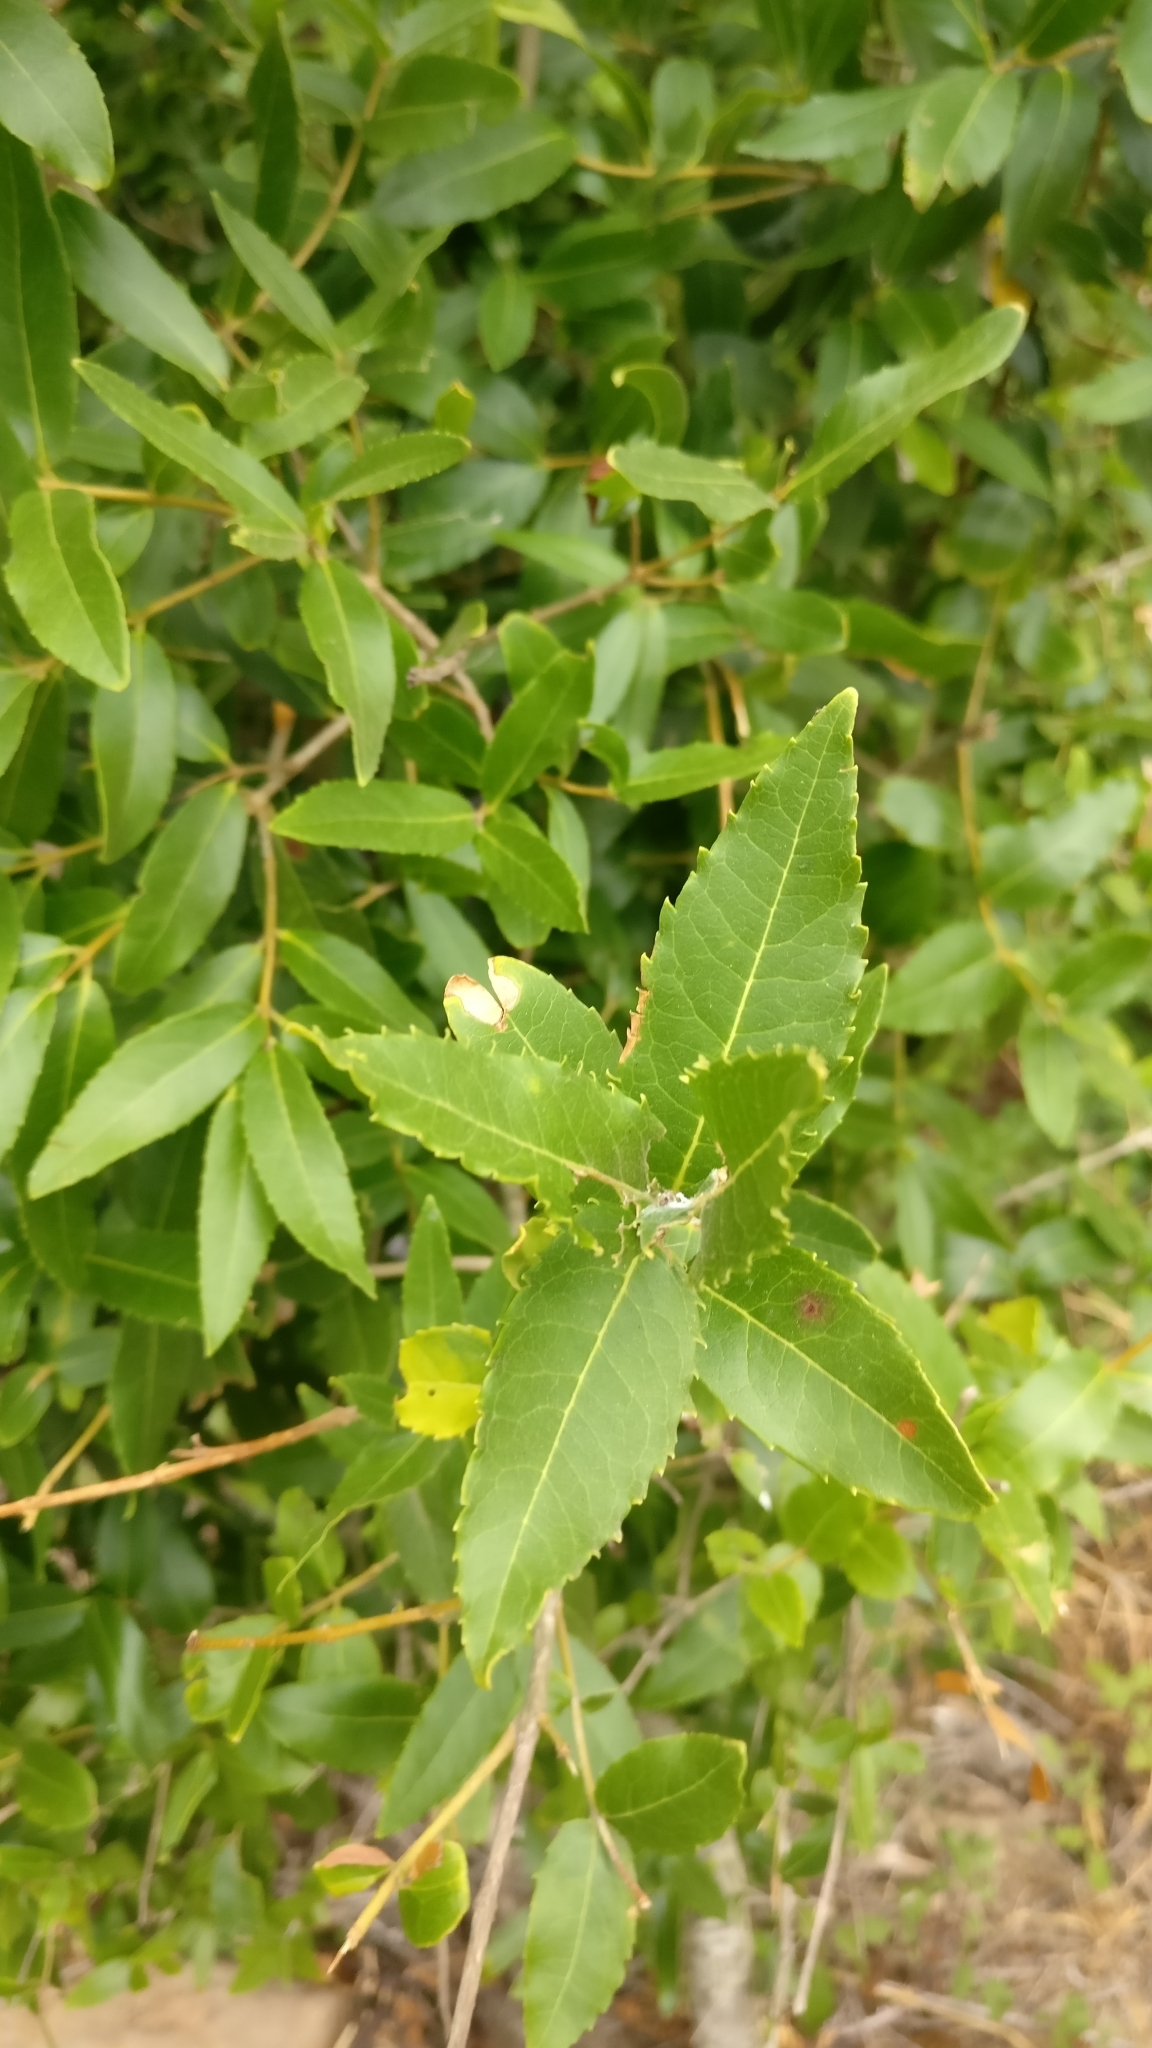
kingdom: Plantae
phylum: Tracheophyta
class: Magnoliopsida
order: Lamiales
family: Oleaceae
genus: Phillyrea
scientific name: Phillyrea latifolia
